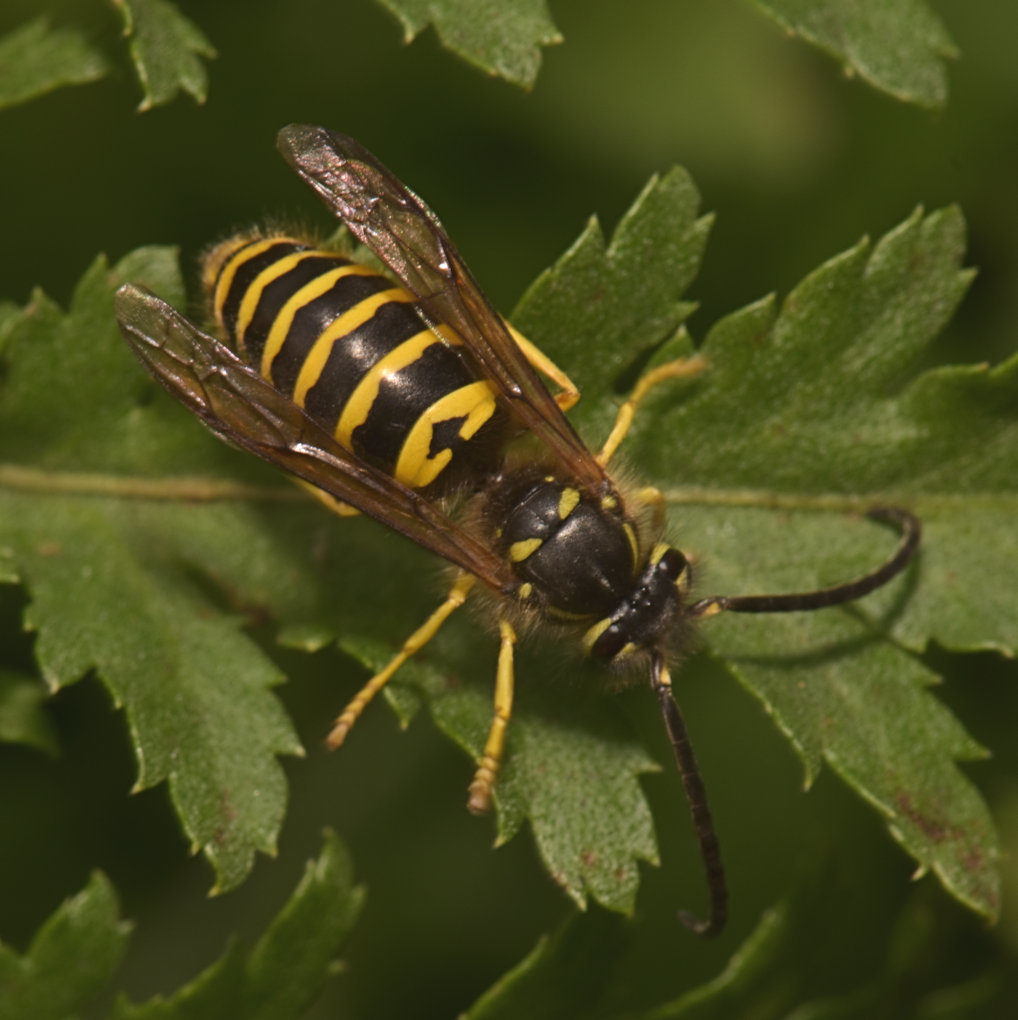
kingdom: Animalia
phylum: Arthropoda
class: Insecta
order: Hymenoptera
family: Vespidae
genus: Vespula
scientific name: Vespula maculifrons
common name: Eastern yellowjacket
